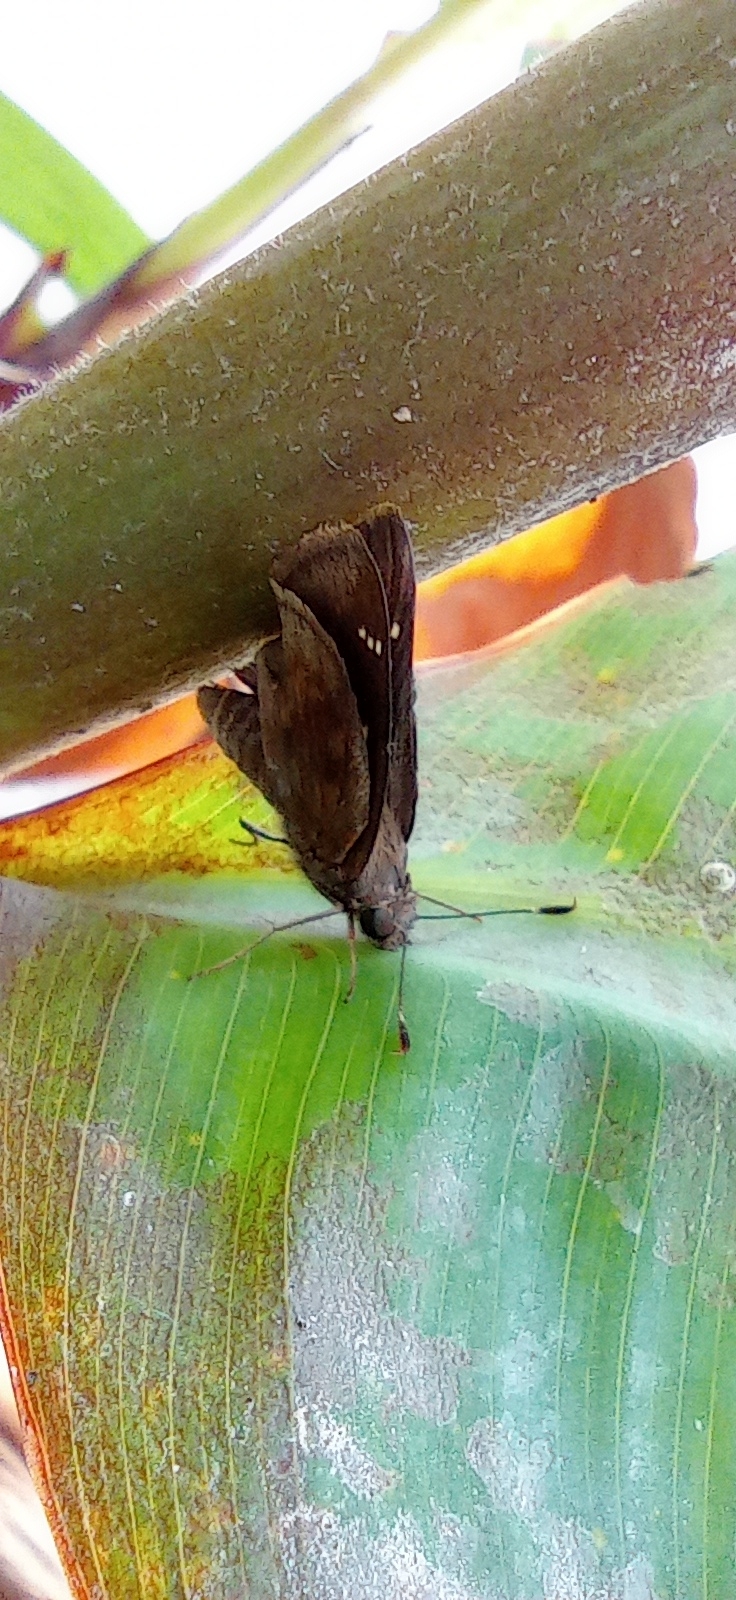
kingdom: Animalia
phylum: Arthropoda
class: Insecta
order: Lepidoptera
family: Hesperiidae
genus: Quinta
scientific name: Quinta cannae
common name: Canna skipper
